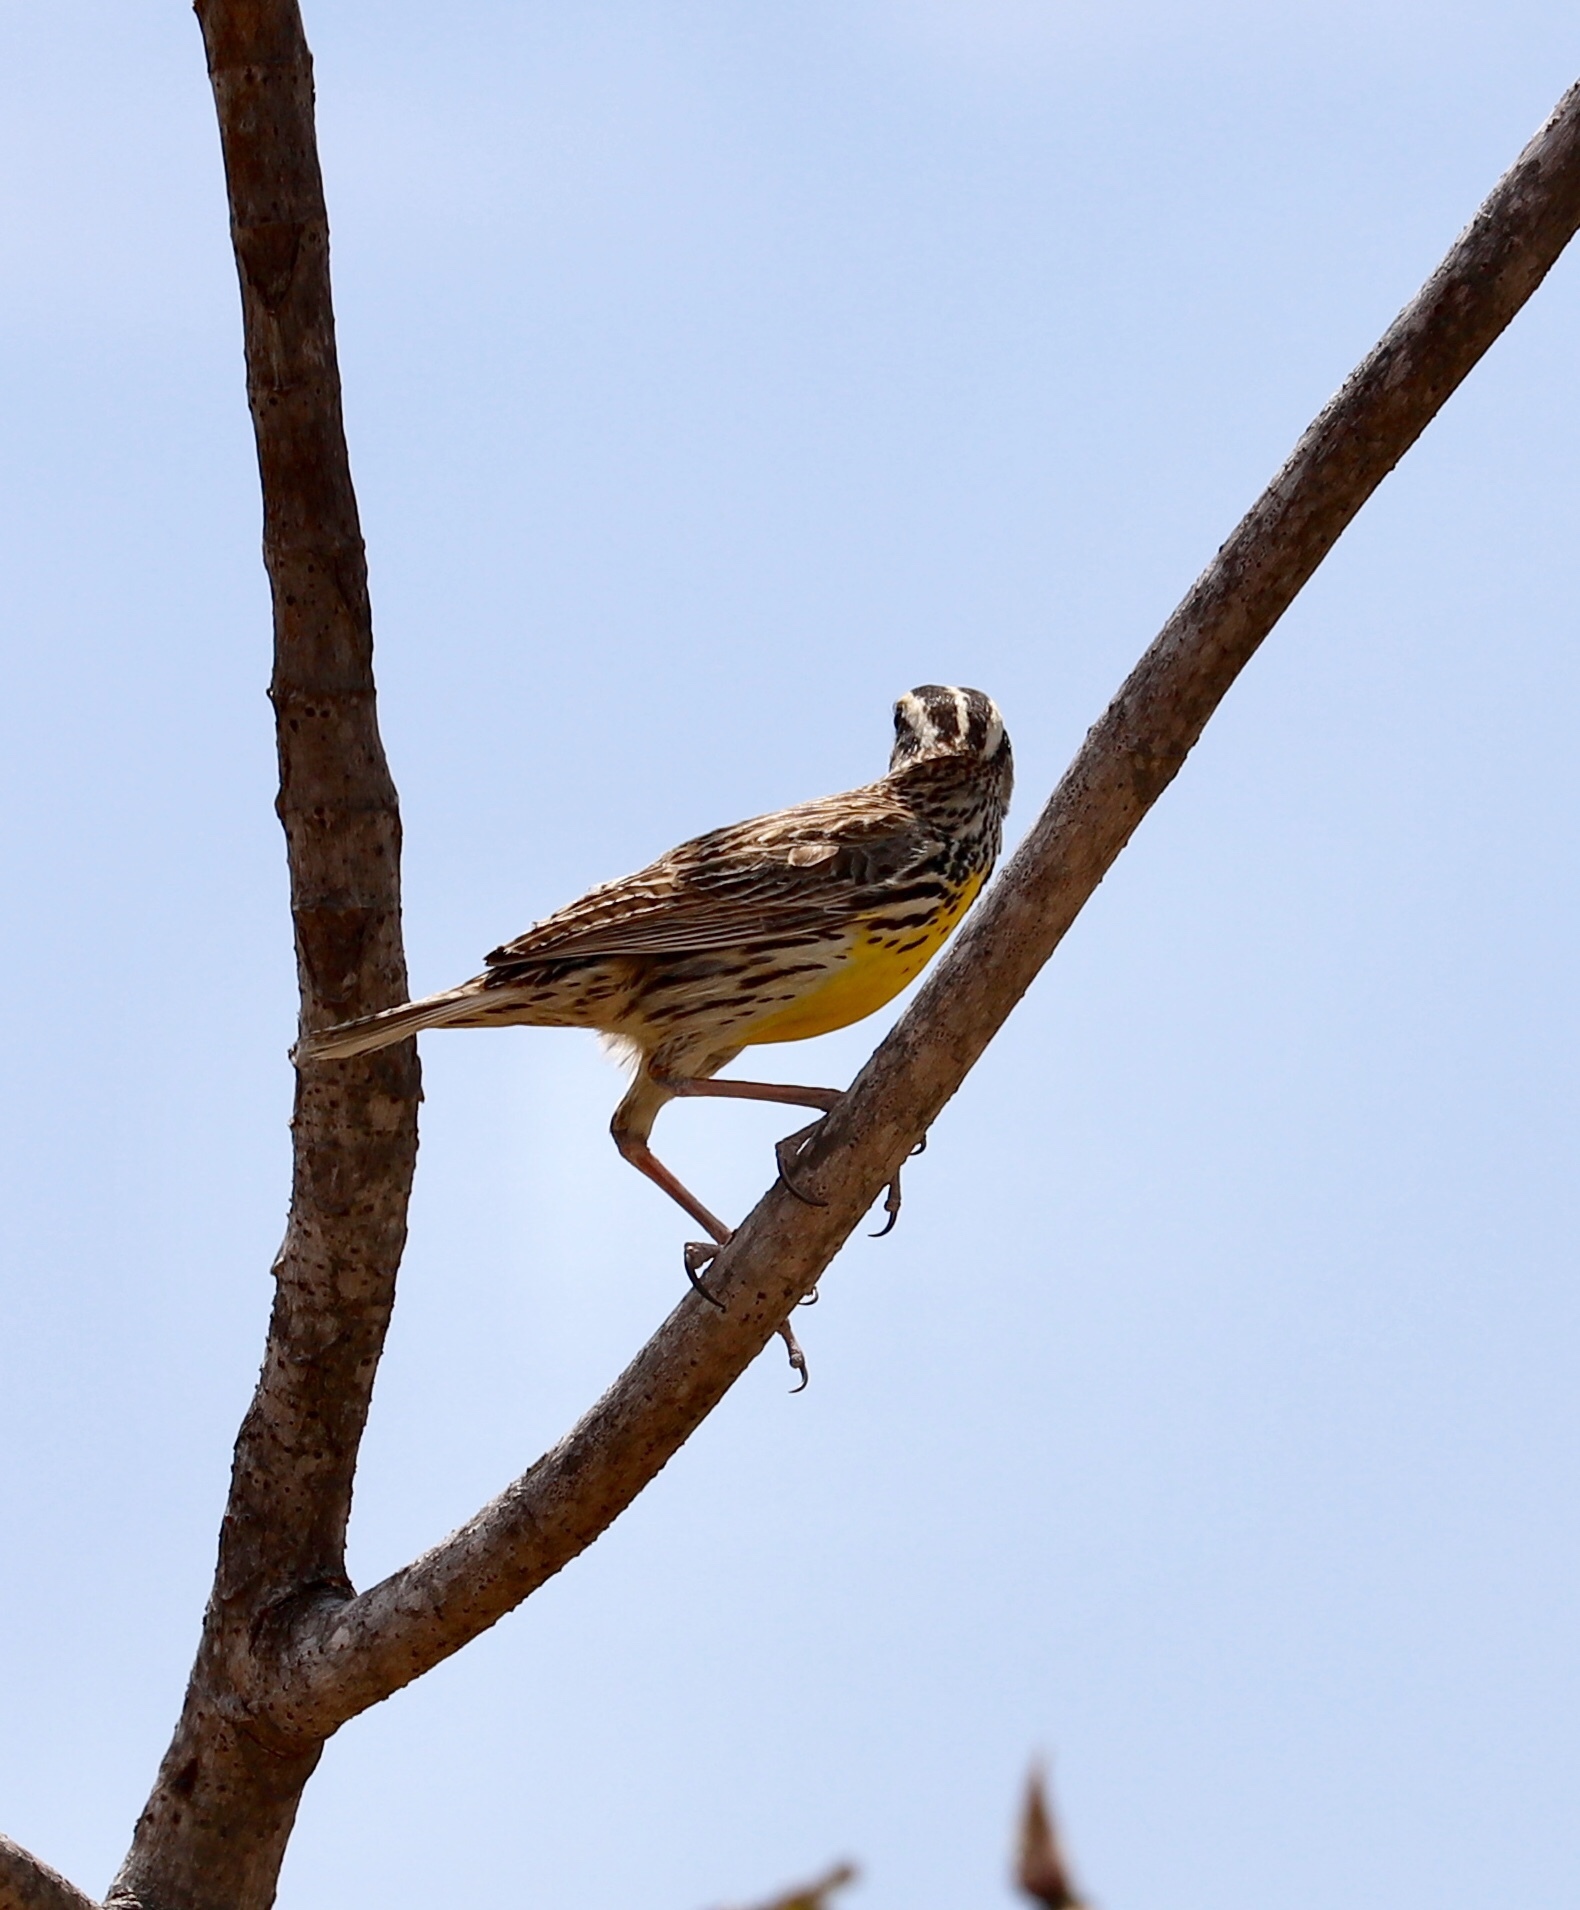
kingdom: Animalia
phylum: Chordata
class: Aves
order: Passeriformes
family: Icteridae
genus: Sturnella
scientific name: Sturnella magna
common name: Eastern meadowlark
